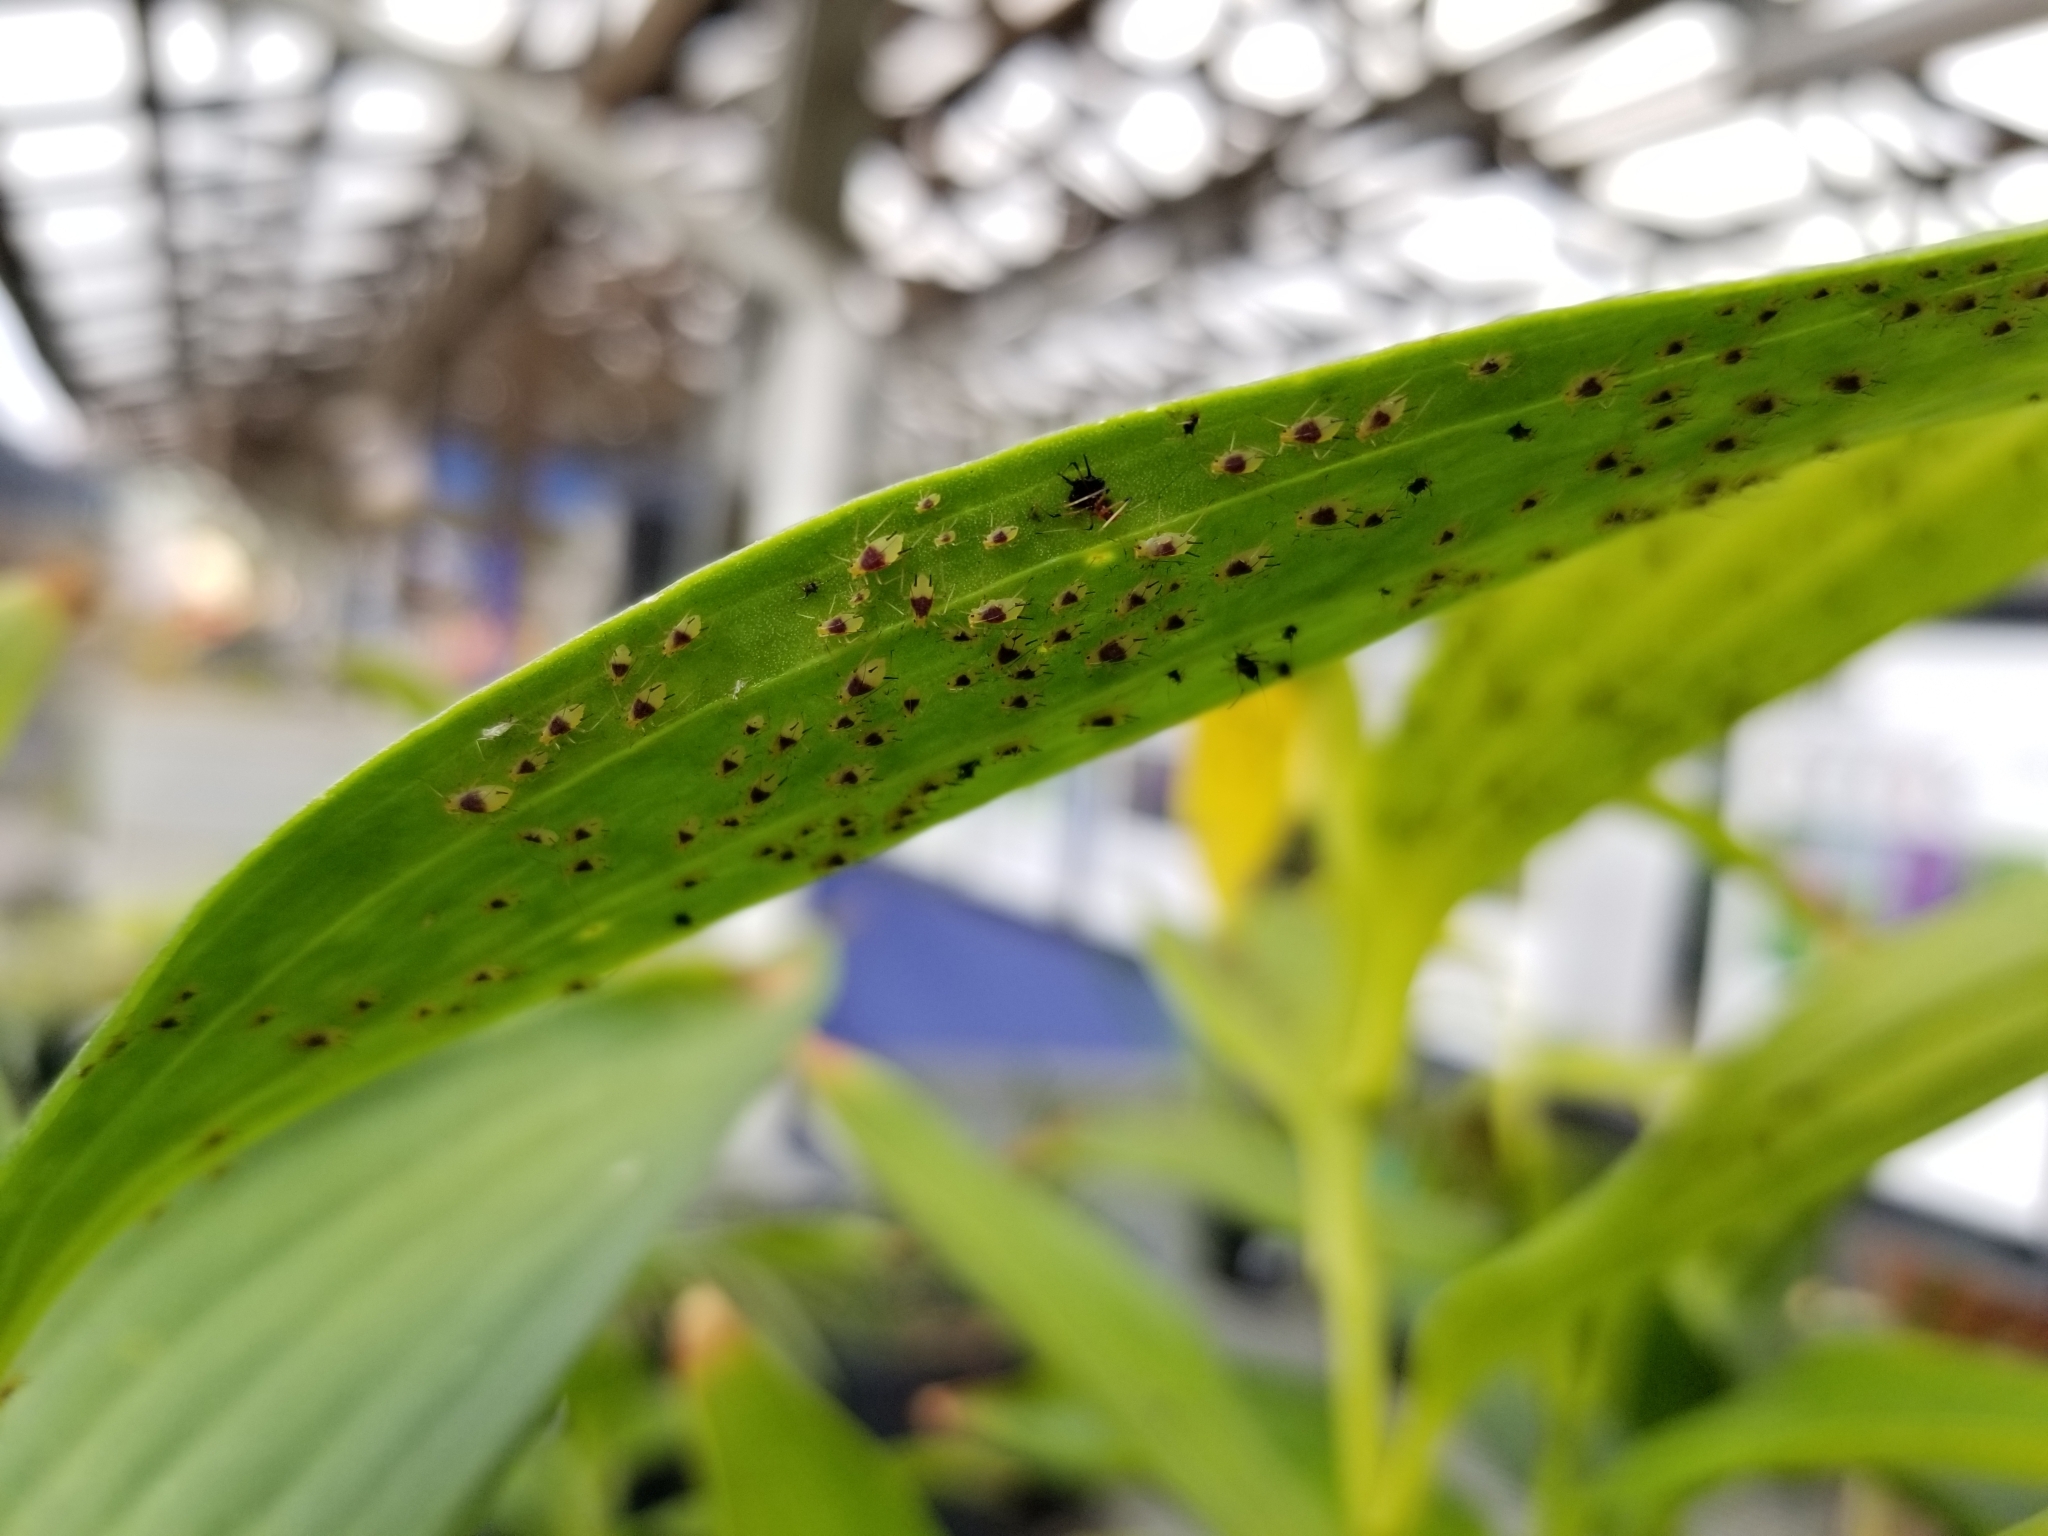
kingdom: Animalia
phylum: Arthropoda
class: Insecta
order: Hemiptera
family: Aphididae
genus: Macrosiphum
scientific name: Macrosiphum lilii
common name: Purplespotted lily aphid
